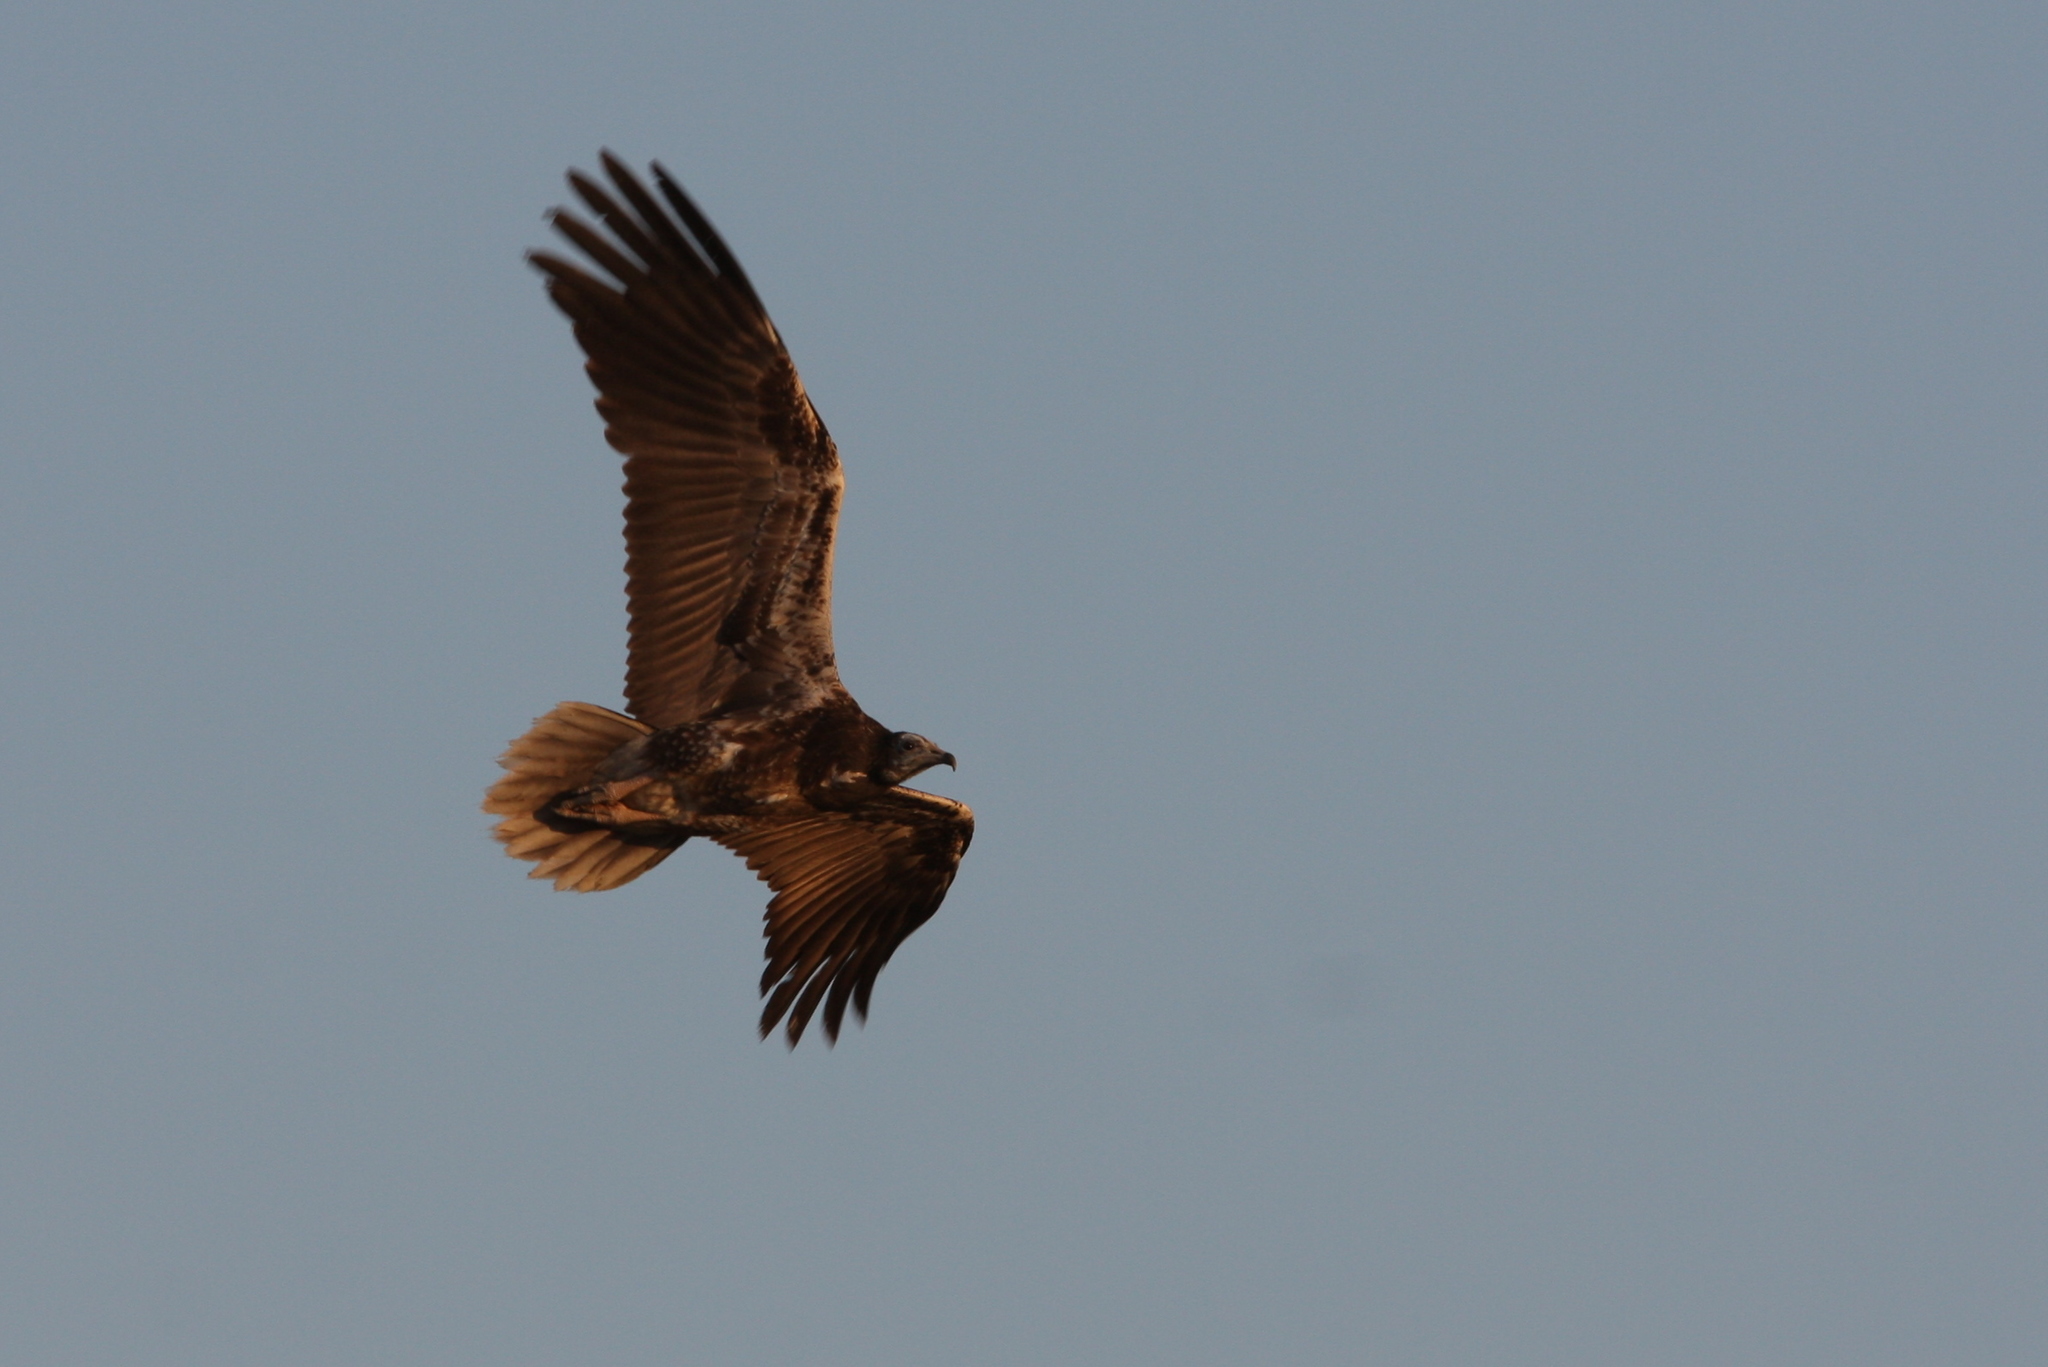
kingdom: Animalia
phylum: Chordata
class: Aves
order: Accipitriformes
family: Accipitridae
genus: Neophron
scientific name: Neophron percnopterus
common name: Egyptian vulture
